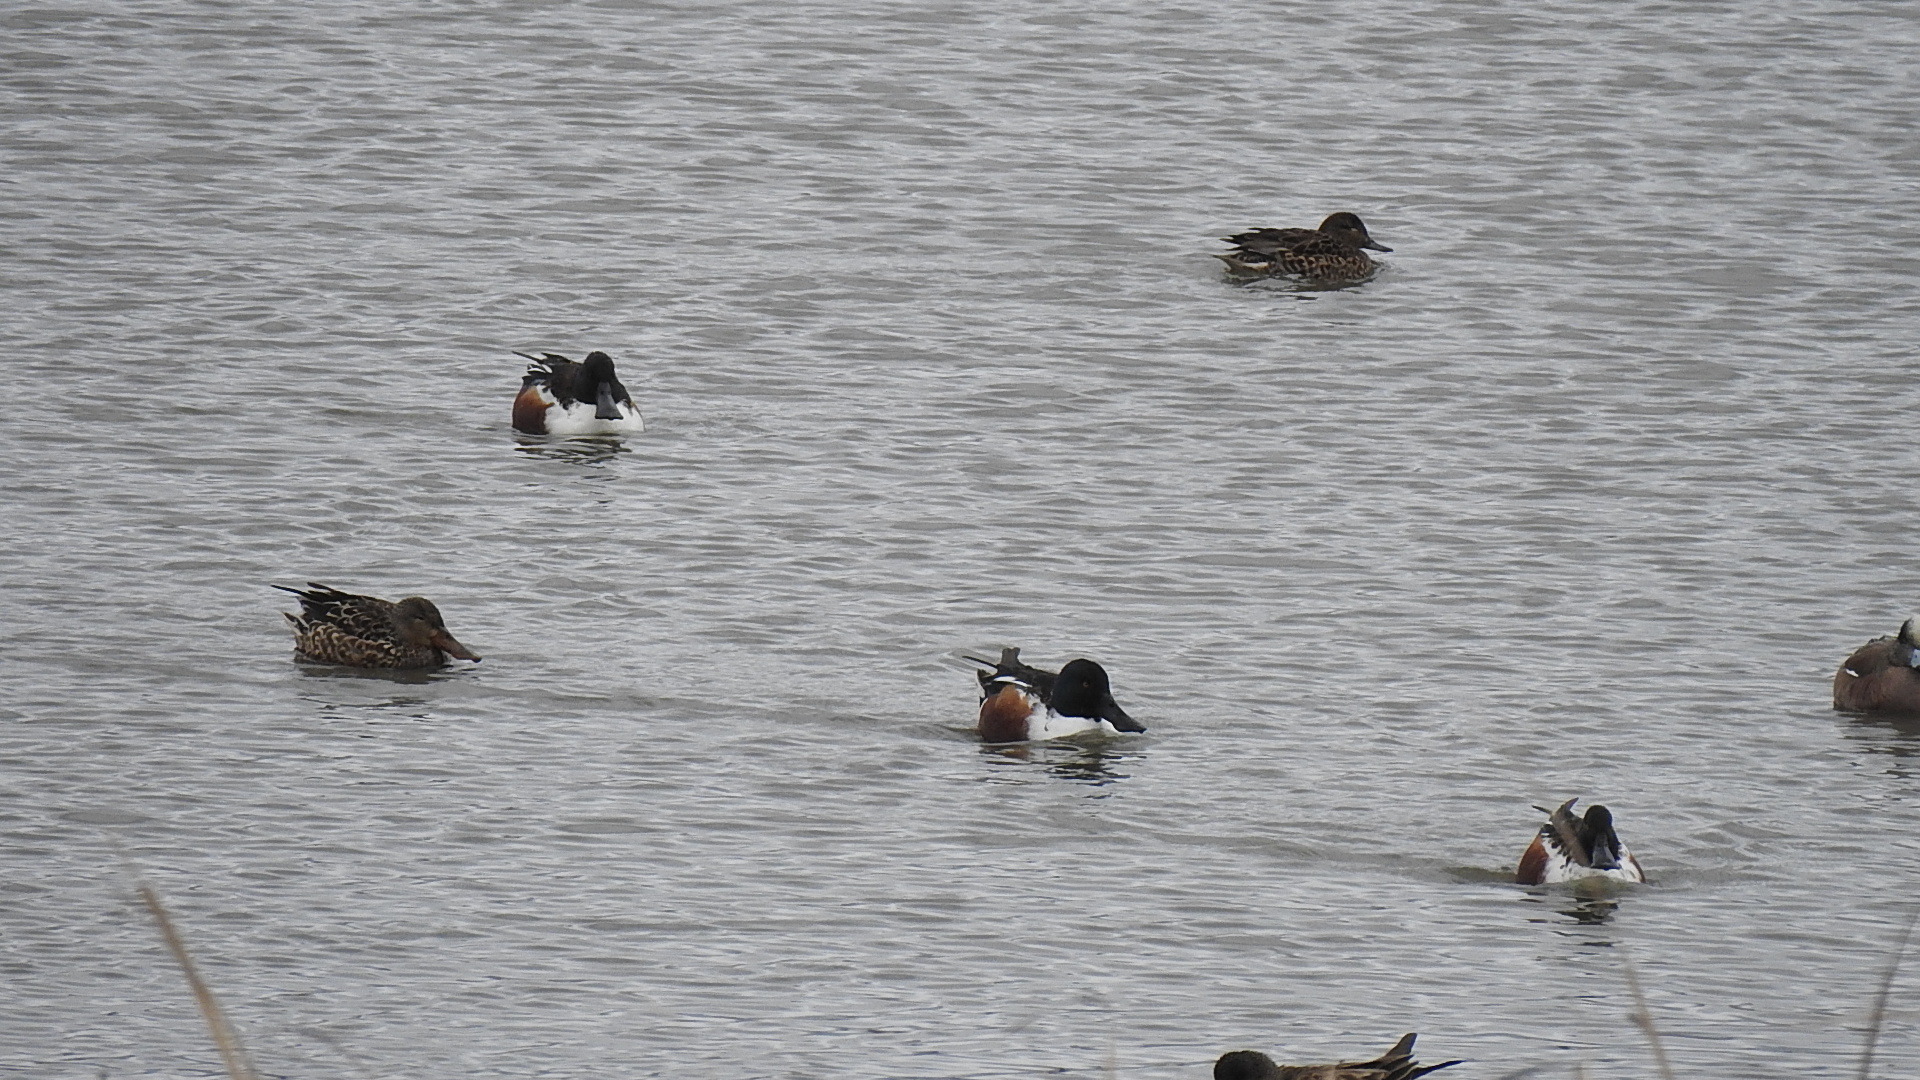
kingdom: Animalia
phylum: Chordata
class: Aves
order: Anseriformes
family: Anatidae
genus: Spatula
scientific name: Spatula clypeata
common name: Northern shoveler
